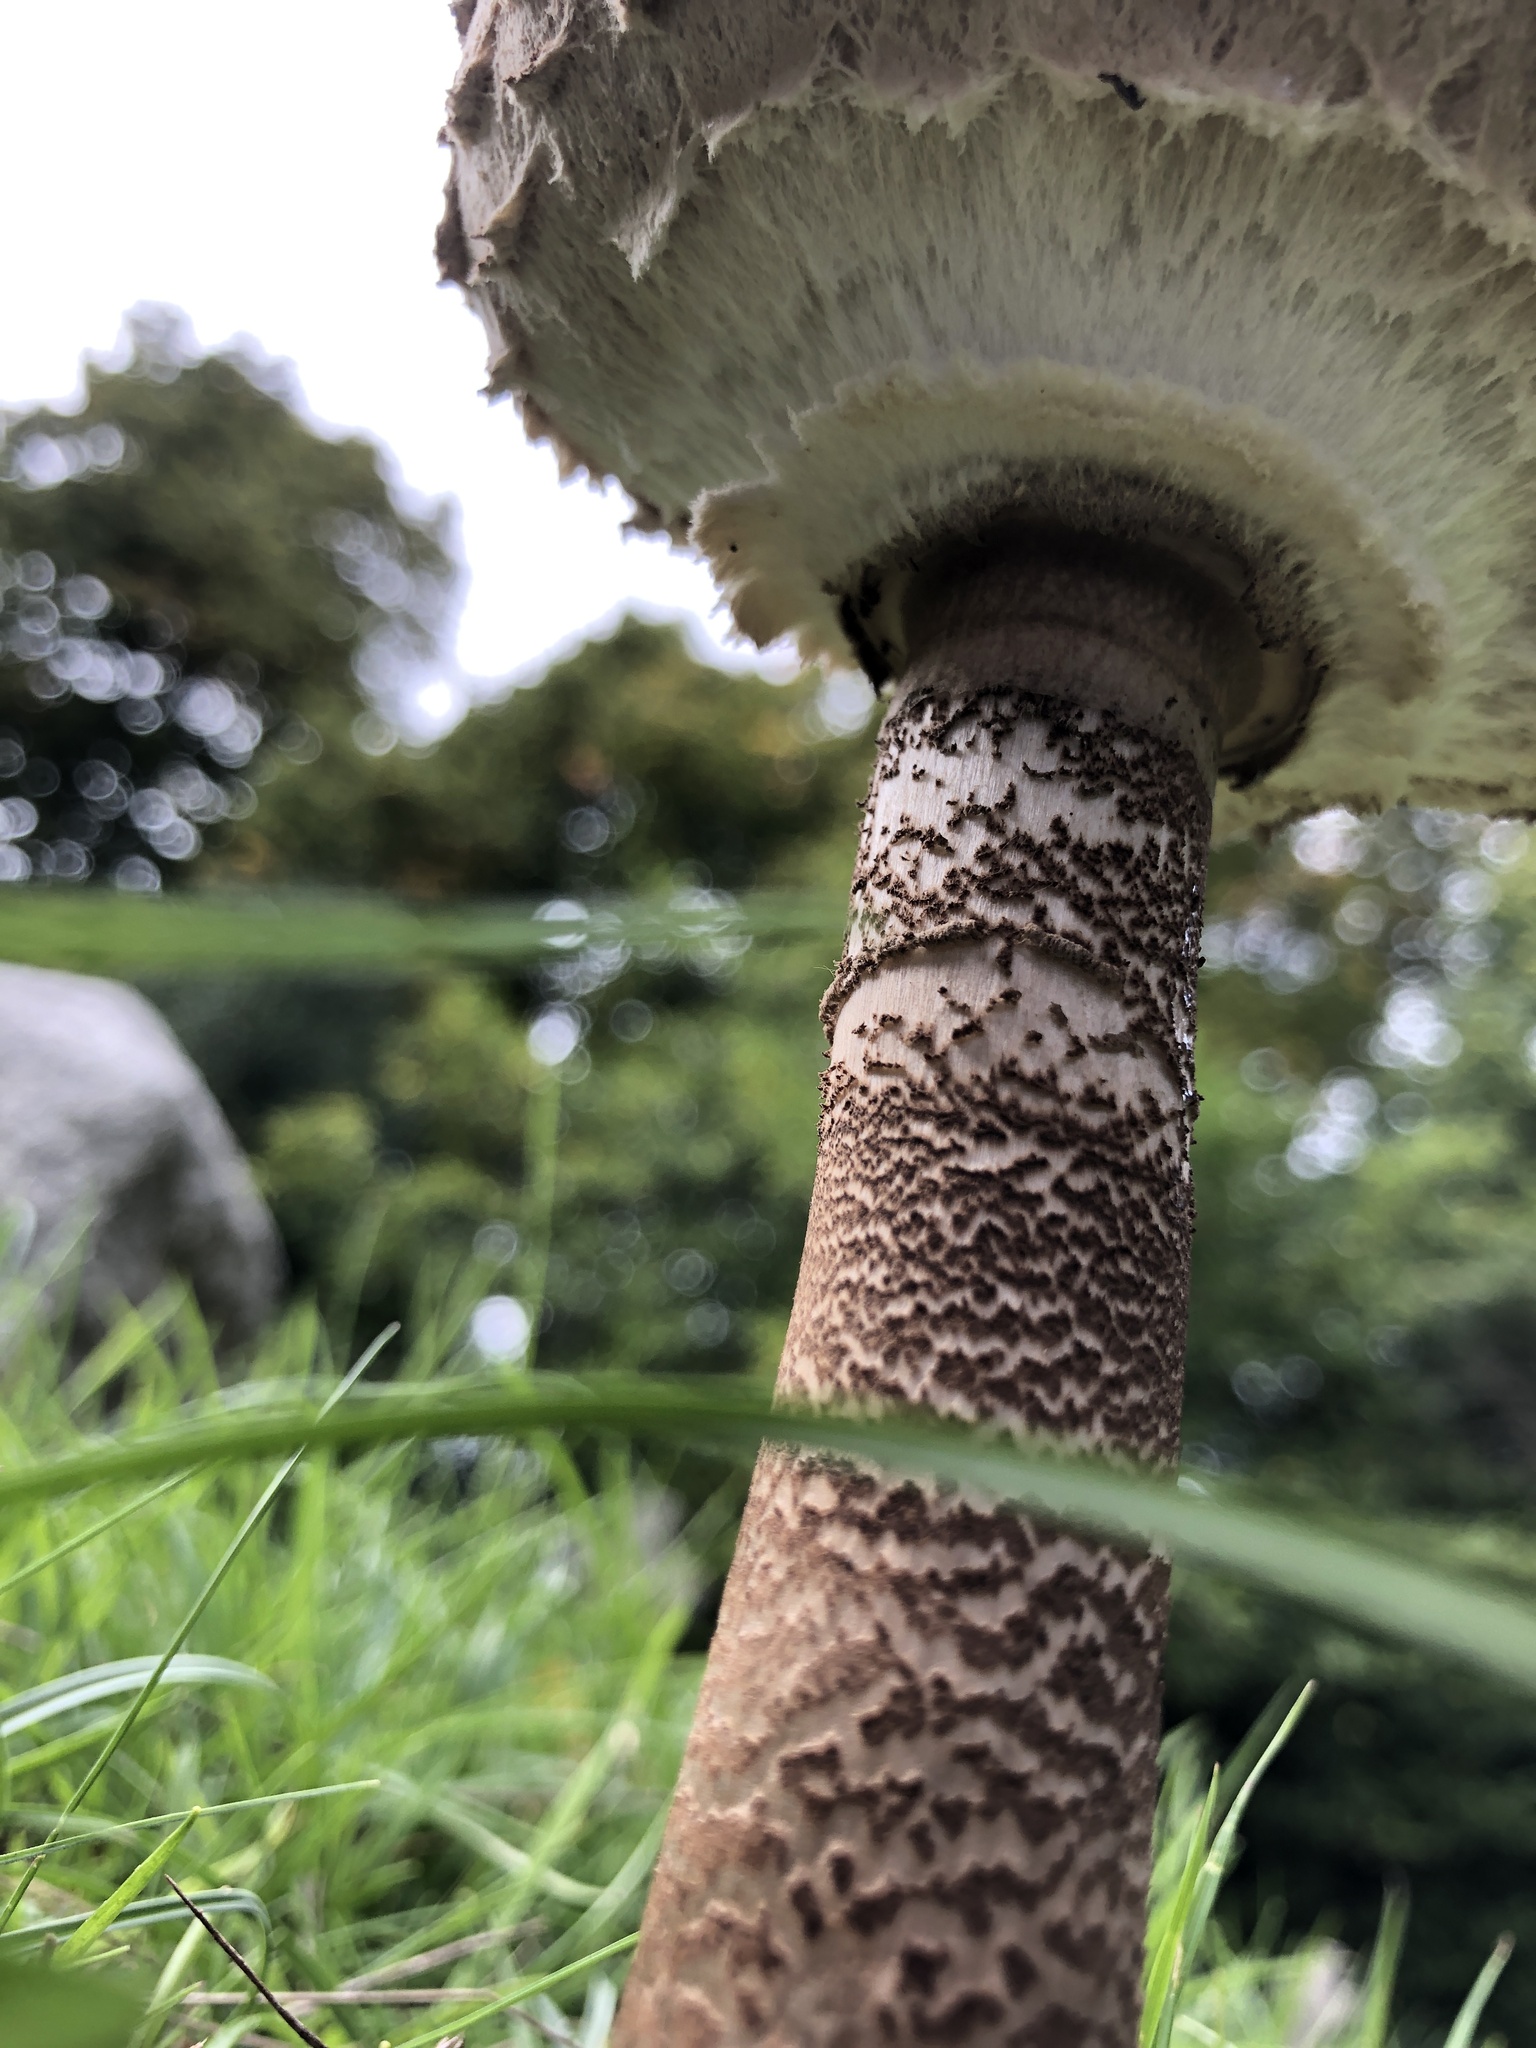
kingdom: Fungi
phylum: Basidiomycota
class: Agaricomycetes
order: Agaricales
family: Agaricaceae
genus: Macrolepiota
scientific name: Macrolepiota procera
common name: Parasol
